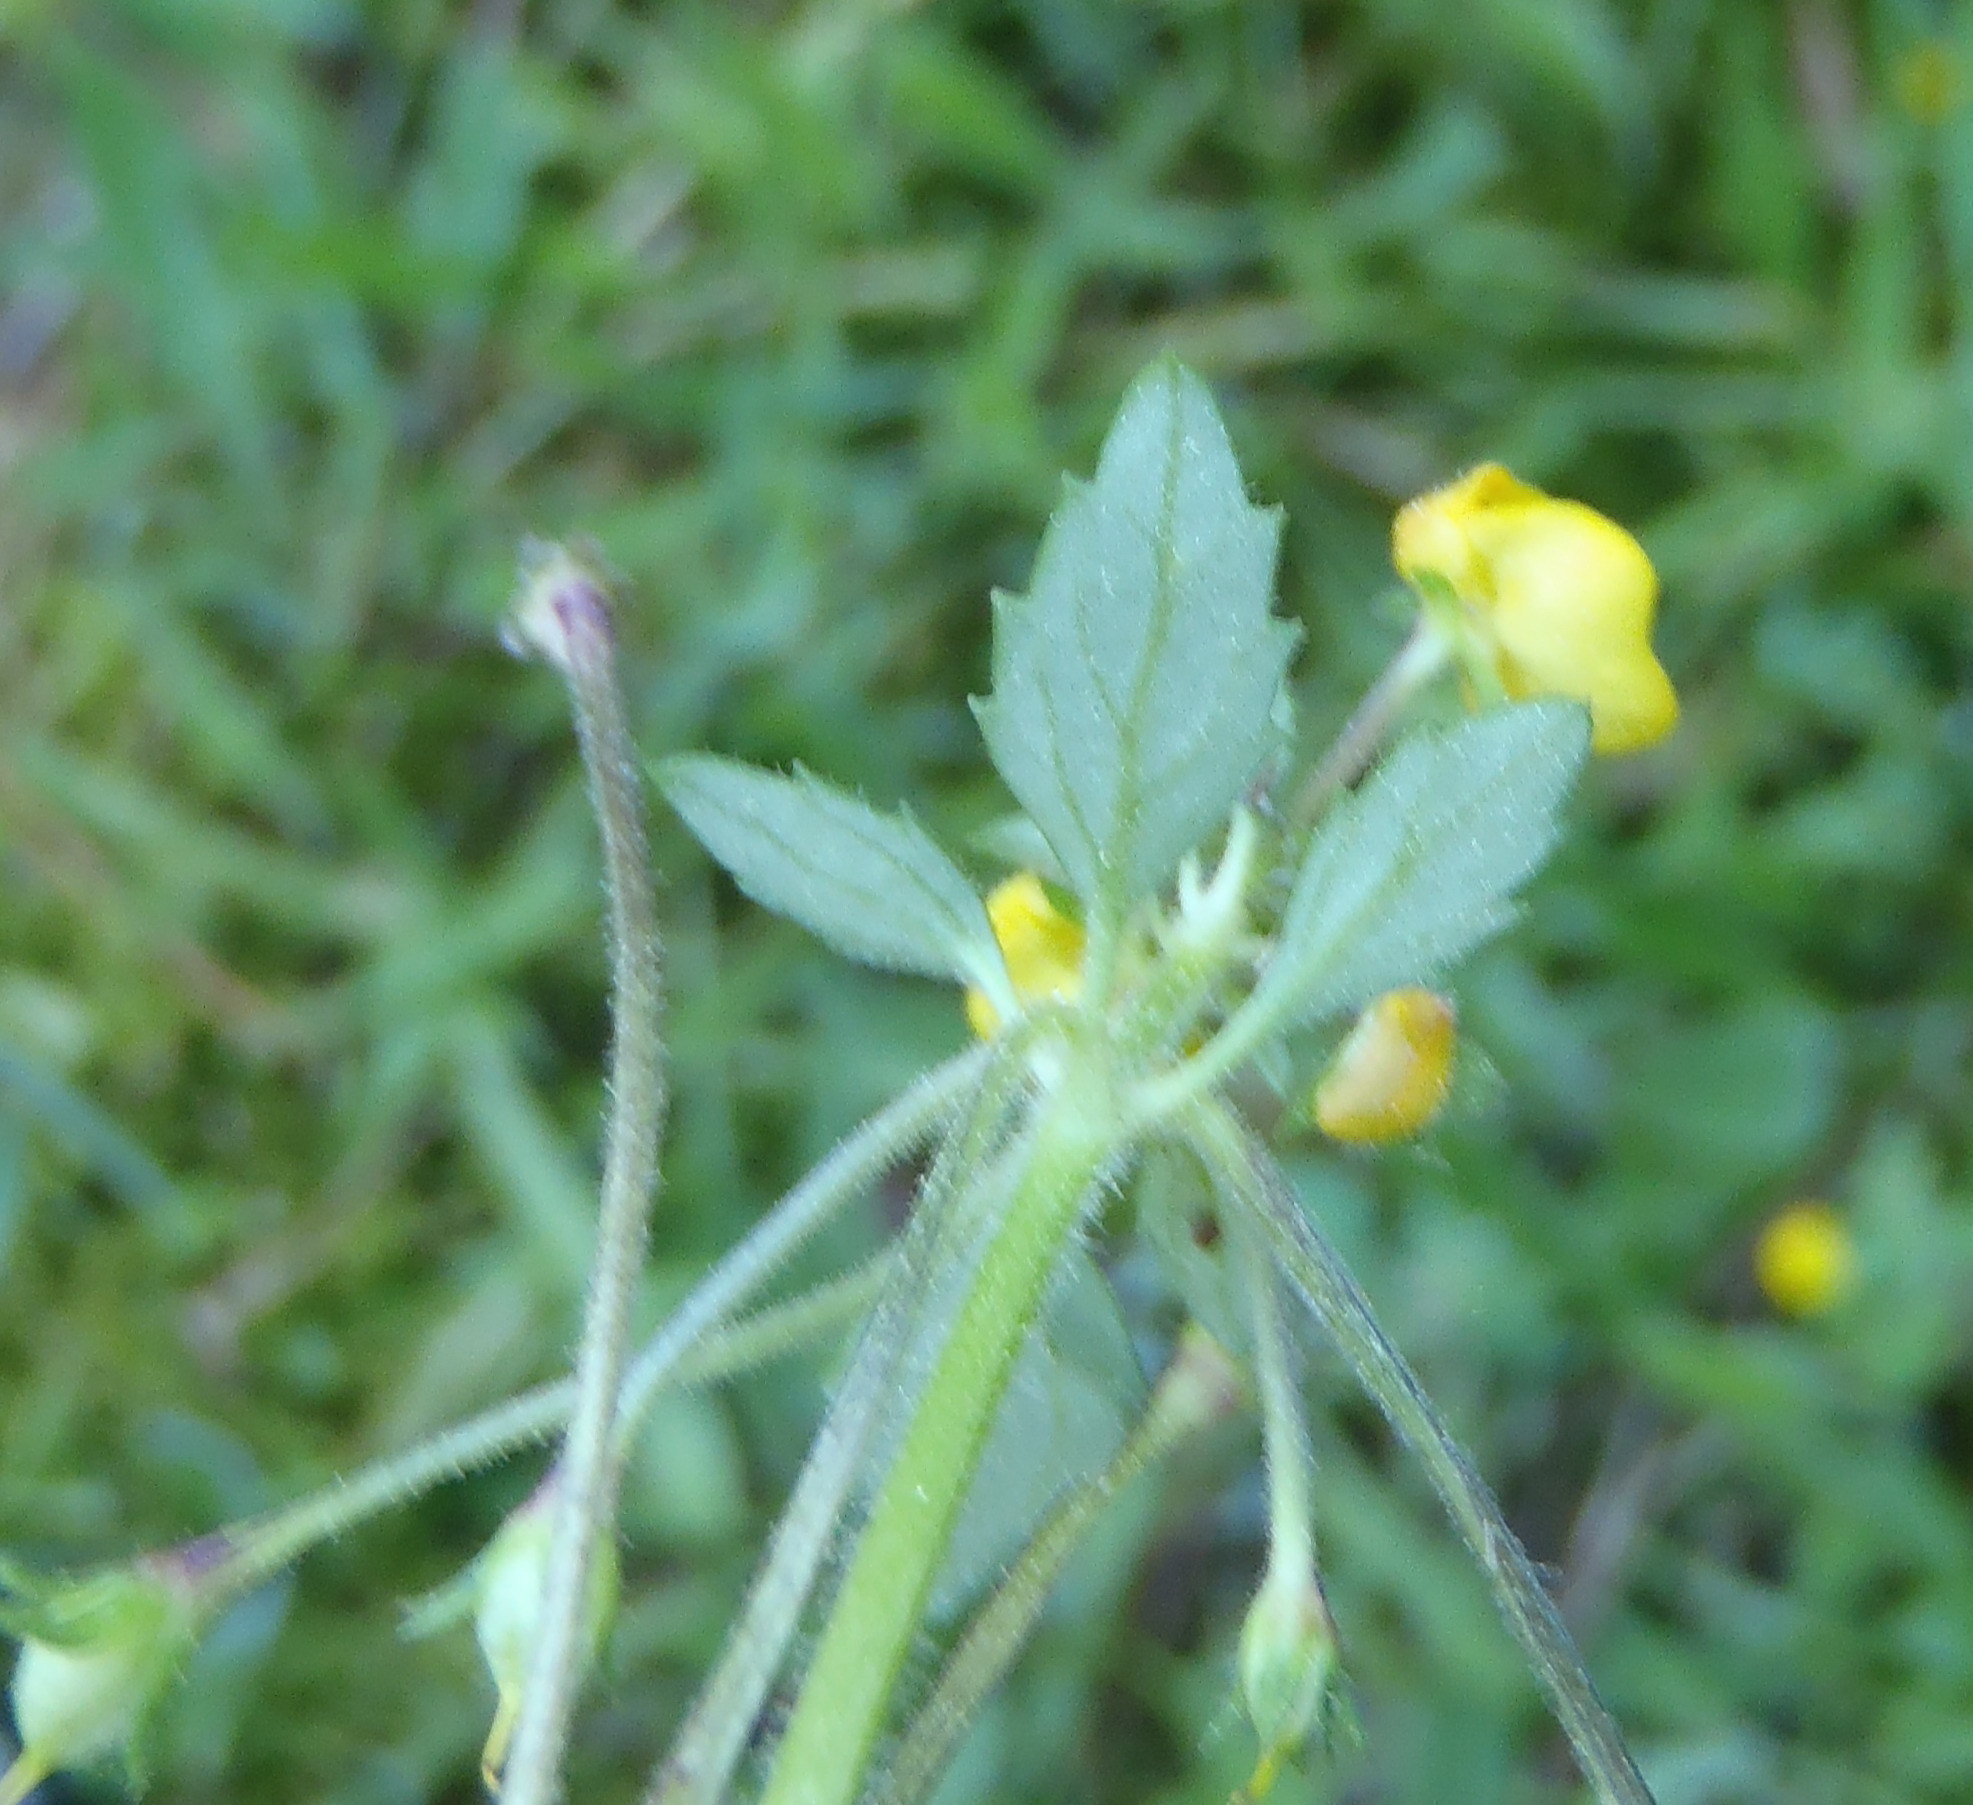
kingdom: Plantae
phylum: Tracheophyta
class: Magnoliopsida
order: Lamiales
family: Scrophulariaceae
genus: Hemimeris
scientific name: Hemimeris racemosa
